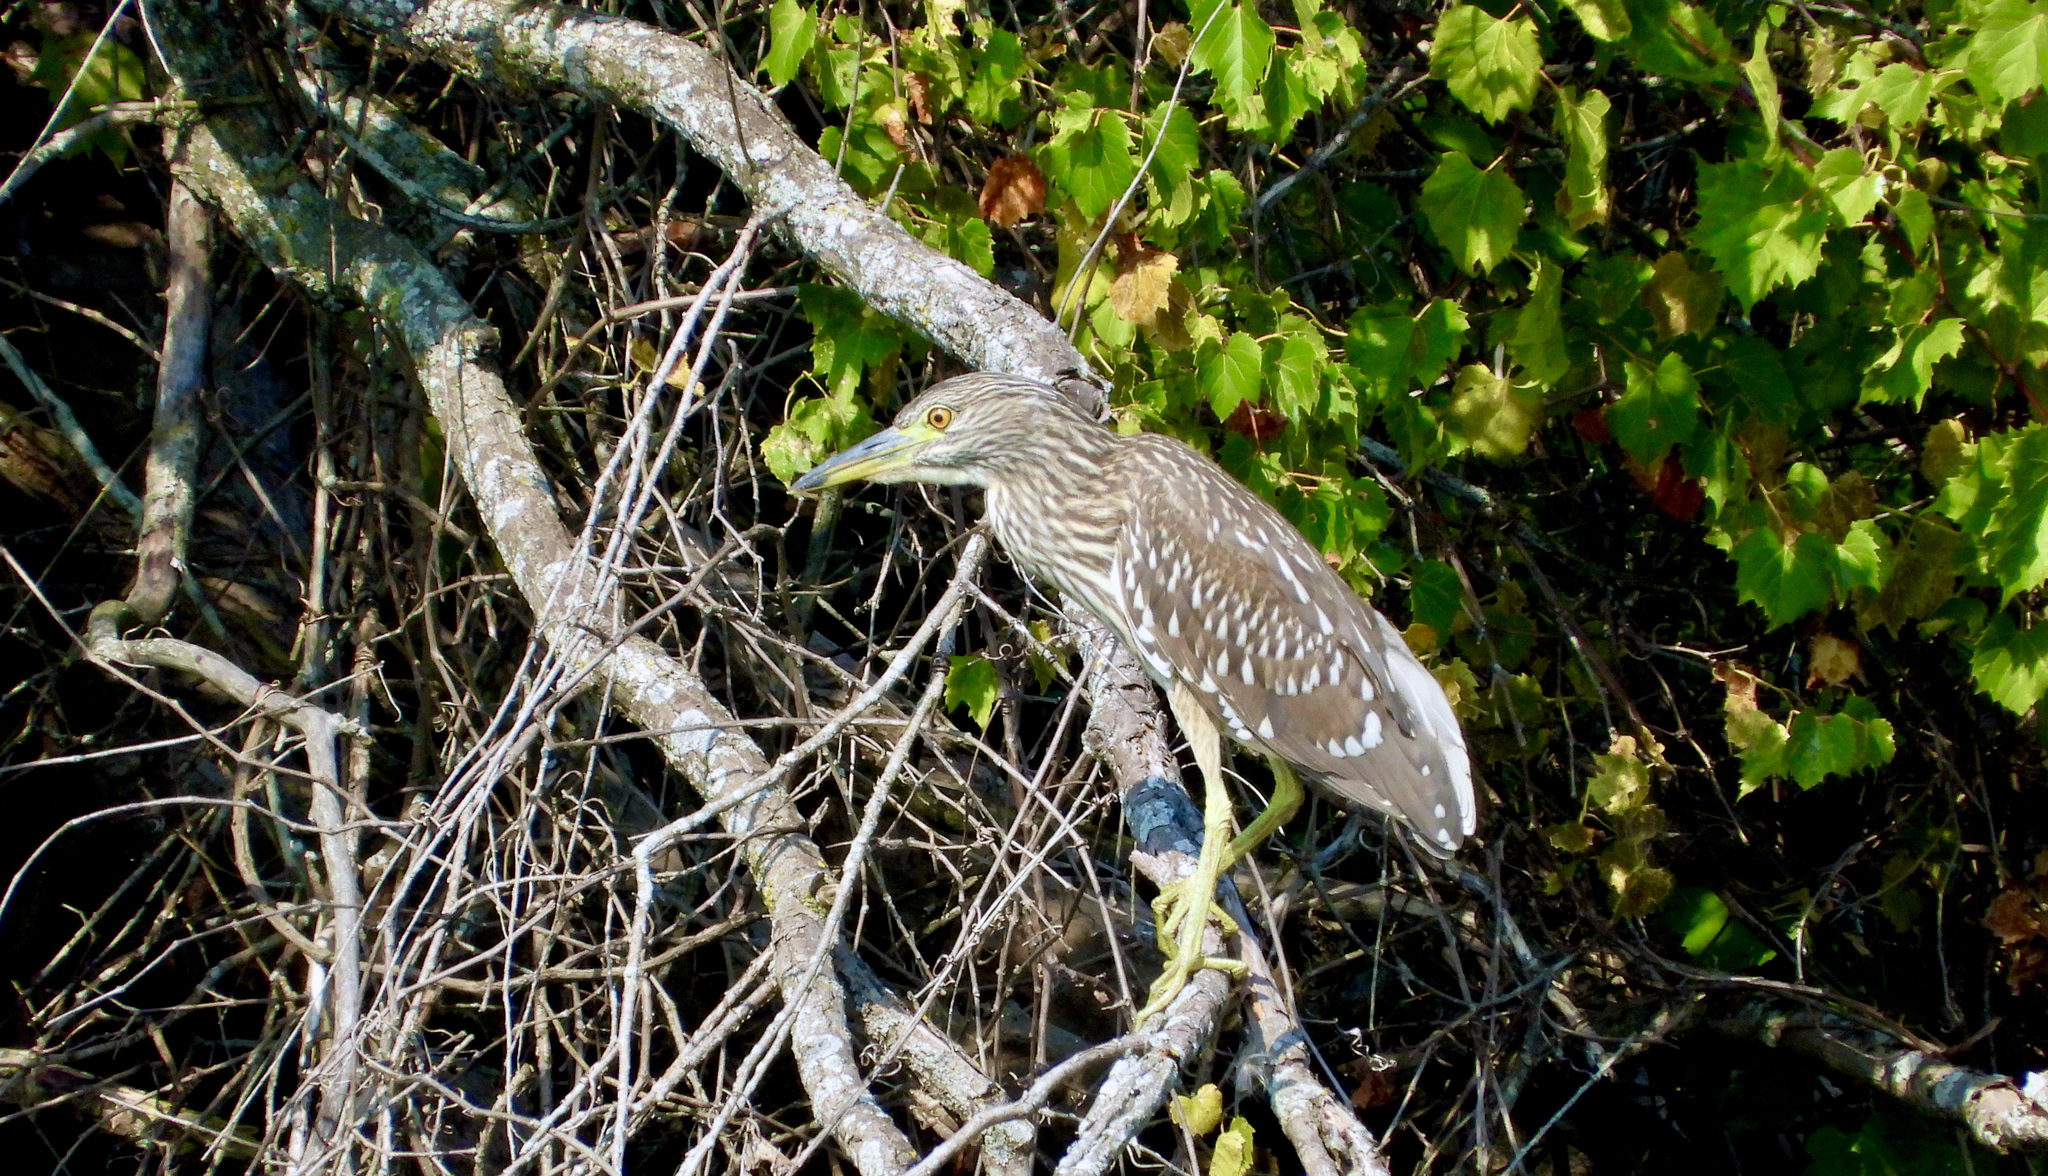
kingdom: Animalia
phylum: Chordata
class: Aves
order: Pelecaniformes
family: Ardeidae
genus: Nycticorax
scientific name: Nycticorax nycticorax
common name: Black-crowned night heron
